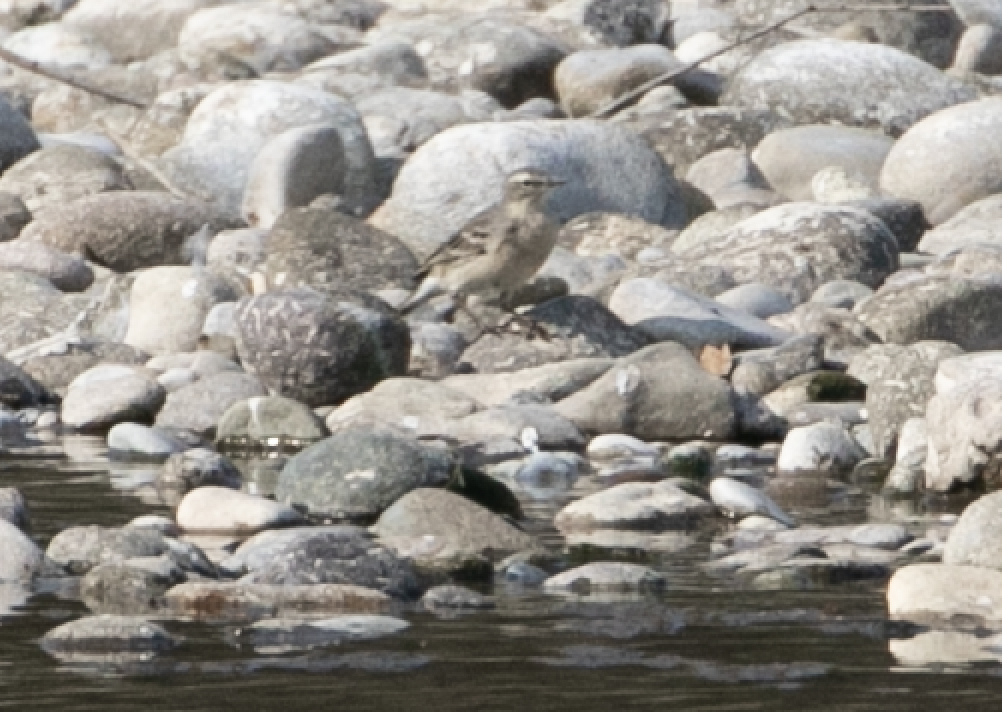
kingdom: Animalia
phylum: Chordata
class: Aves
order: Passeriformes
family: Motacillidae
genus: Anthus
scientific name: Anthus spinoletta
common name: Water pipit
